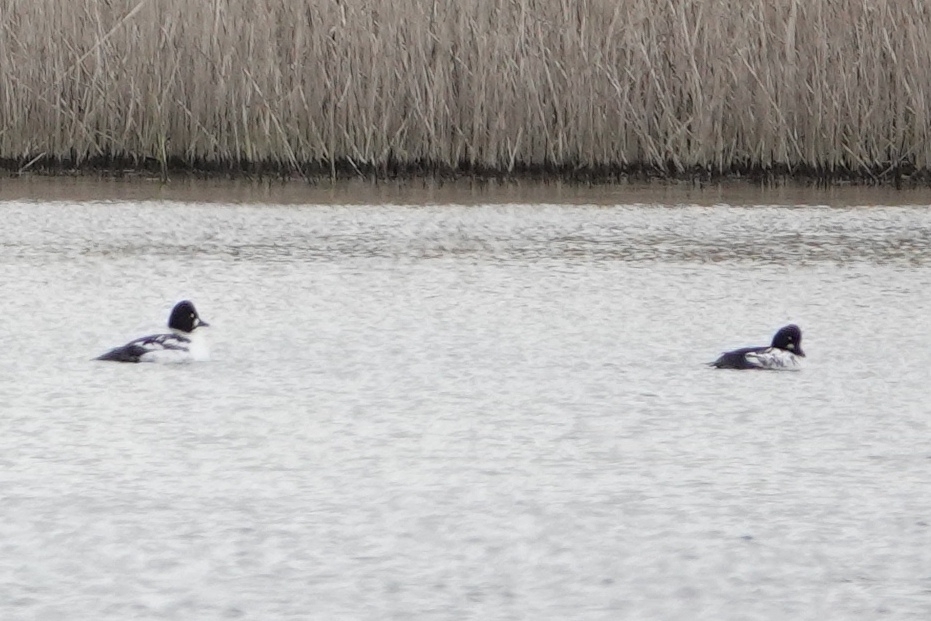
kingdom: Animalia
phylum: Chordata
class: Aves
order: Anseriformes
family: Anatidae
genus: Bucephala
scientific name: Bucephala clangula
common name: Common goldeneye
